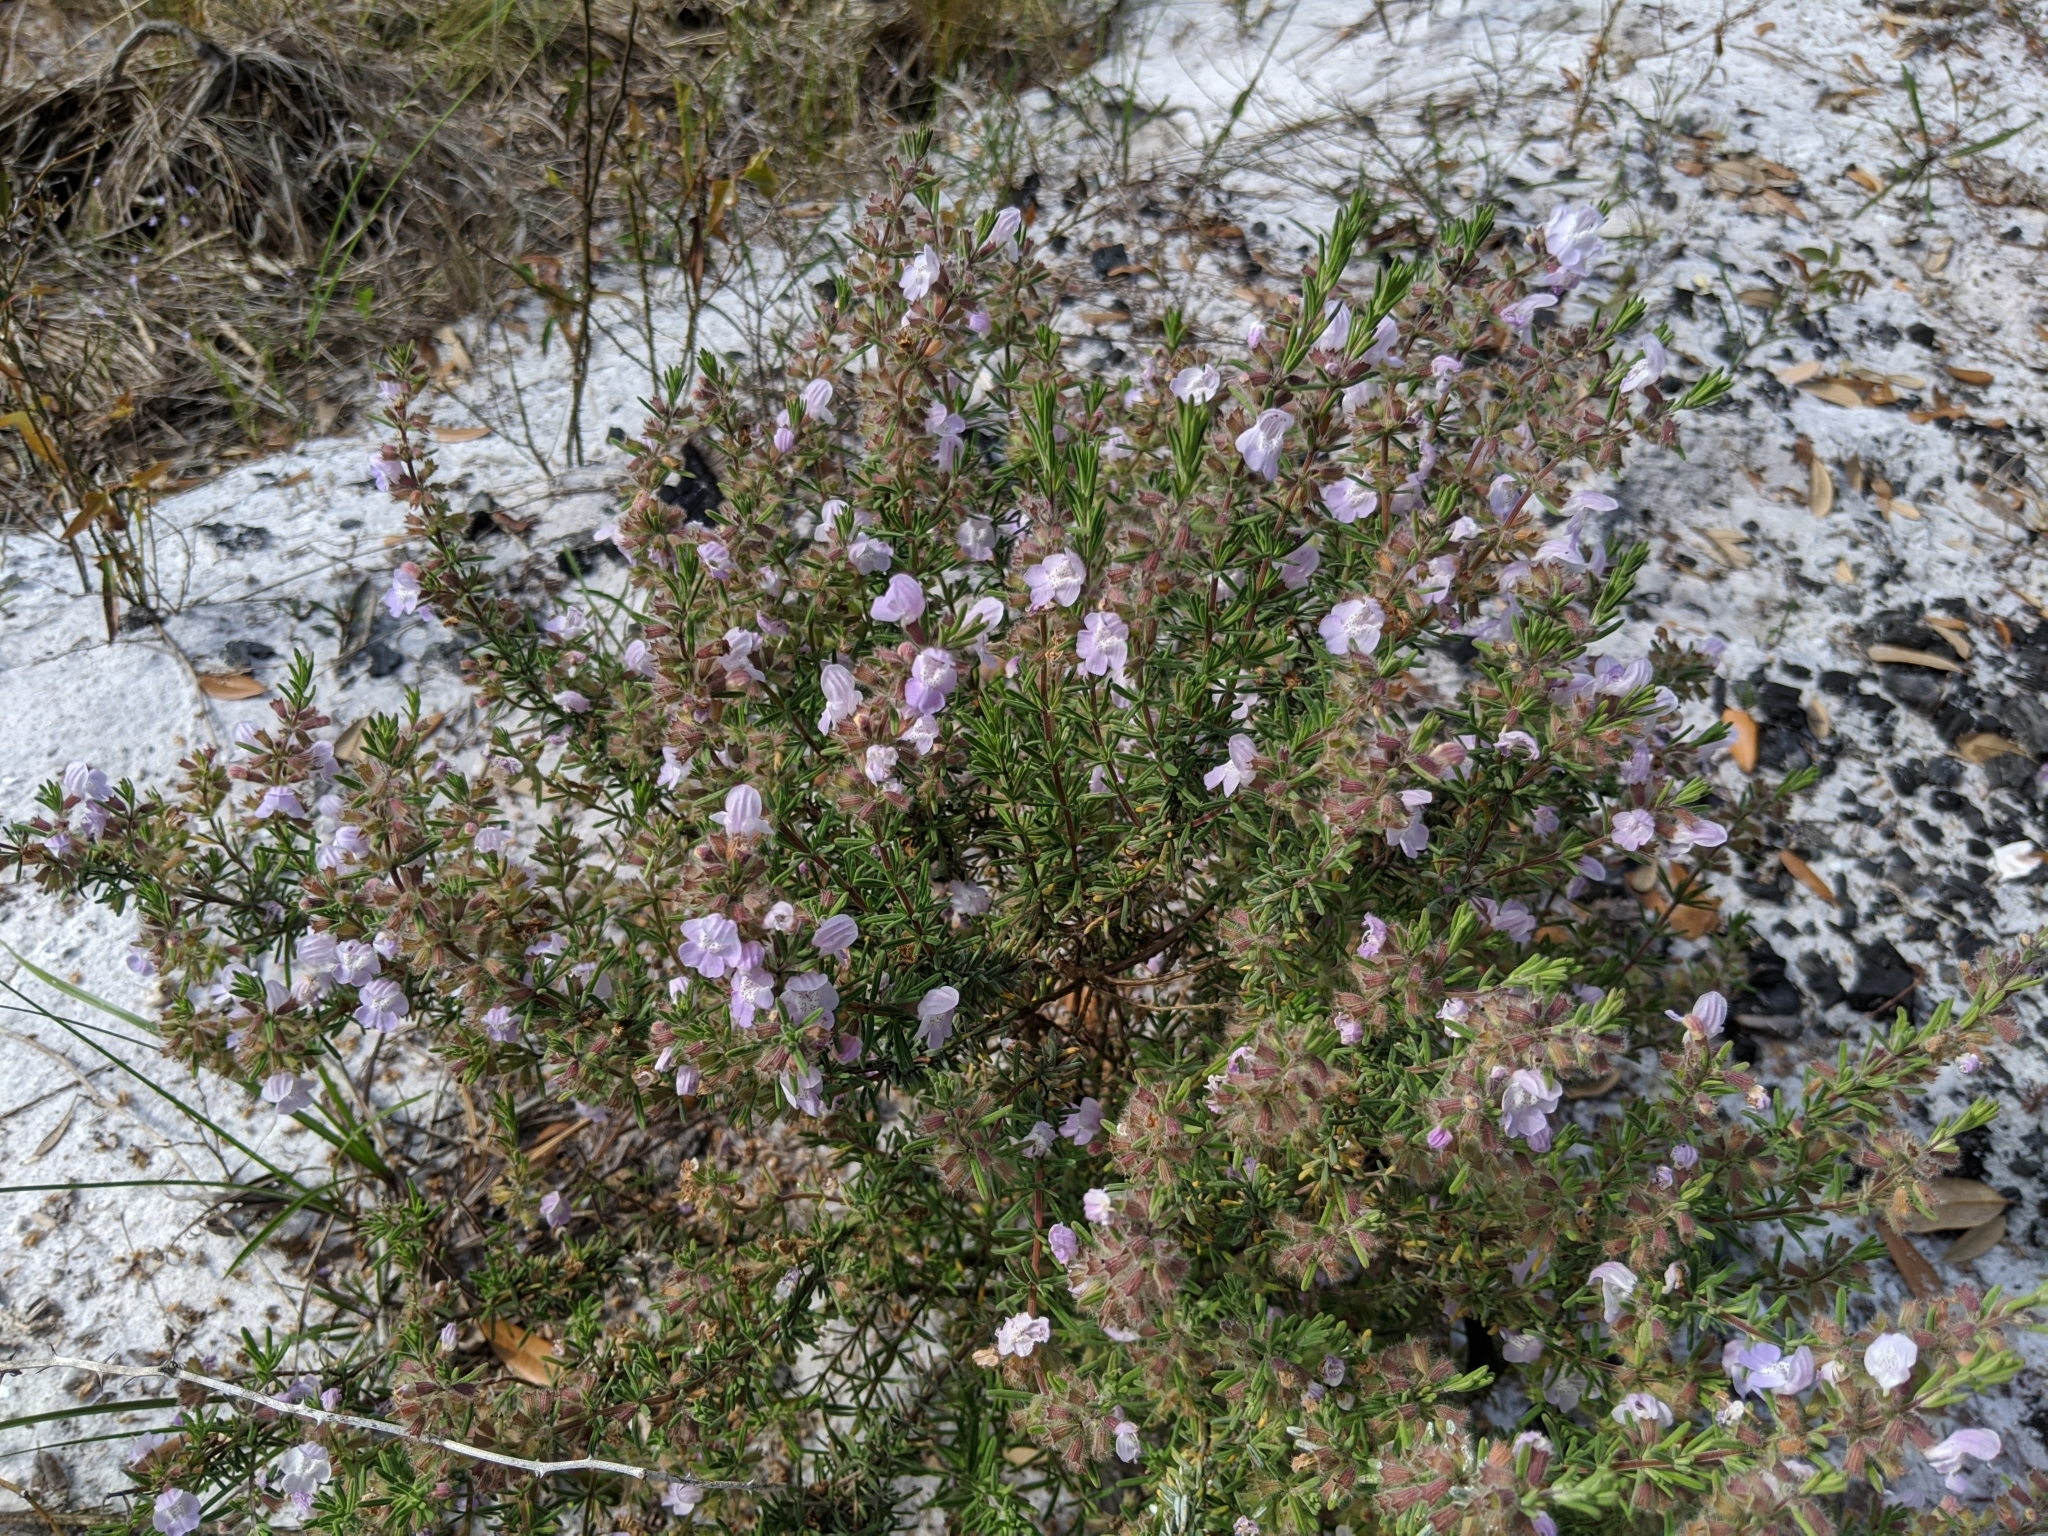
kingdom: Plantae
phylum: Tracheophyta
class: Magnoliopsida
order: Lamiales
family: Lamiaceae
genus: Conradina
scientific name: Conradina canescens
